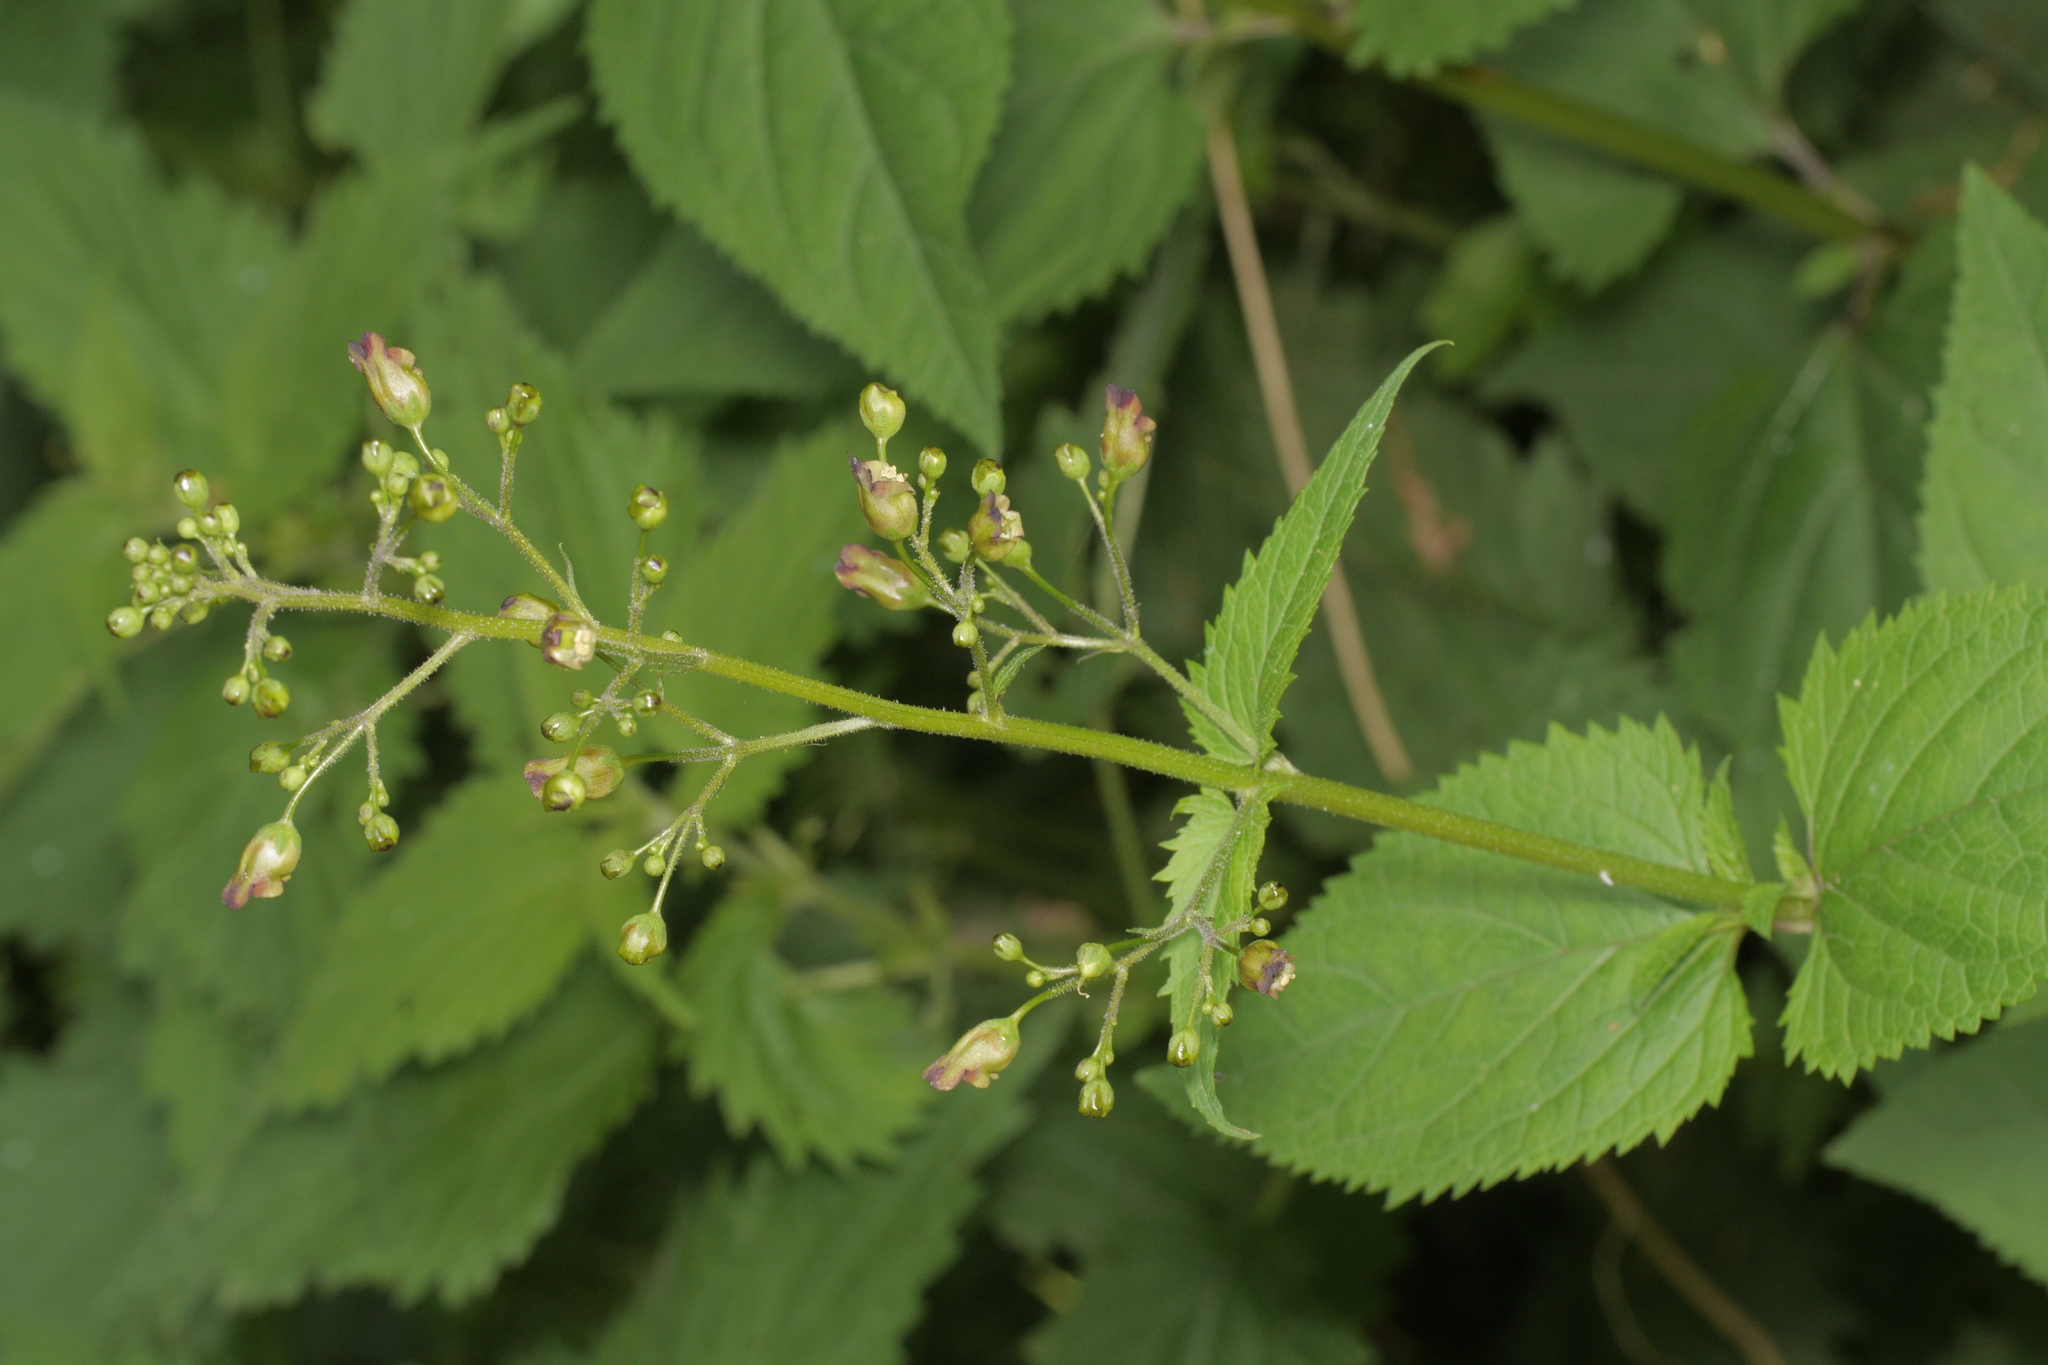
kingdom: Plantae
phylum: Tracheophyta
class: Magnoliopsida
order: Lamiales
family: Scrophulariaceae
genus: Scrophularia
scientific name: Scrophularia nodosa
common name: Common figwort
